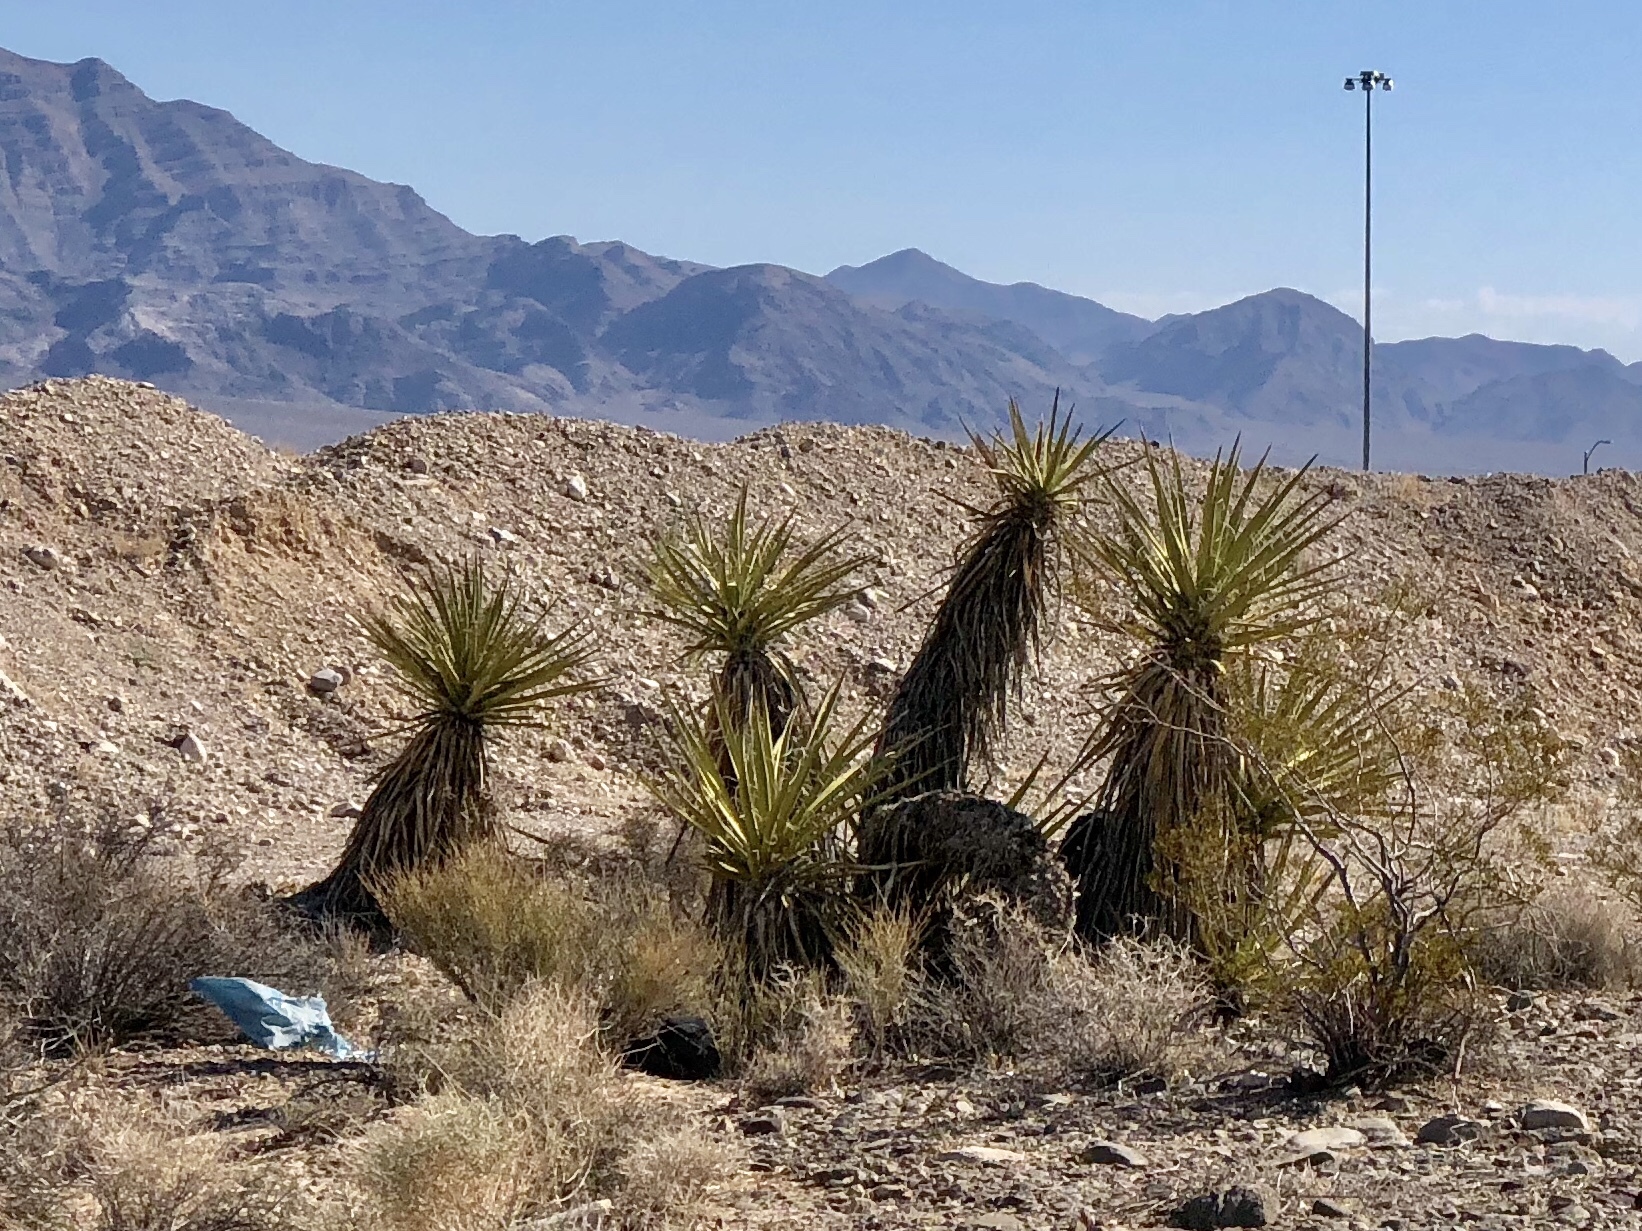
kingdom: Plantae
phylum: Tracheophyta
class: Liliopsida
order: Asparagales
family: Asparagaceae
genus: Yucca
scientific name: Yucca schidigera
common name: Mojave yucca
